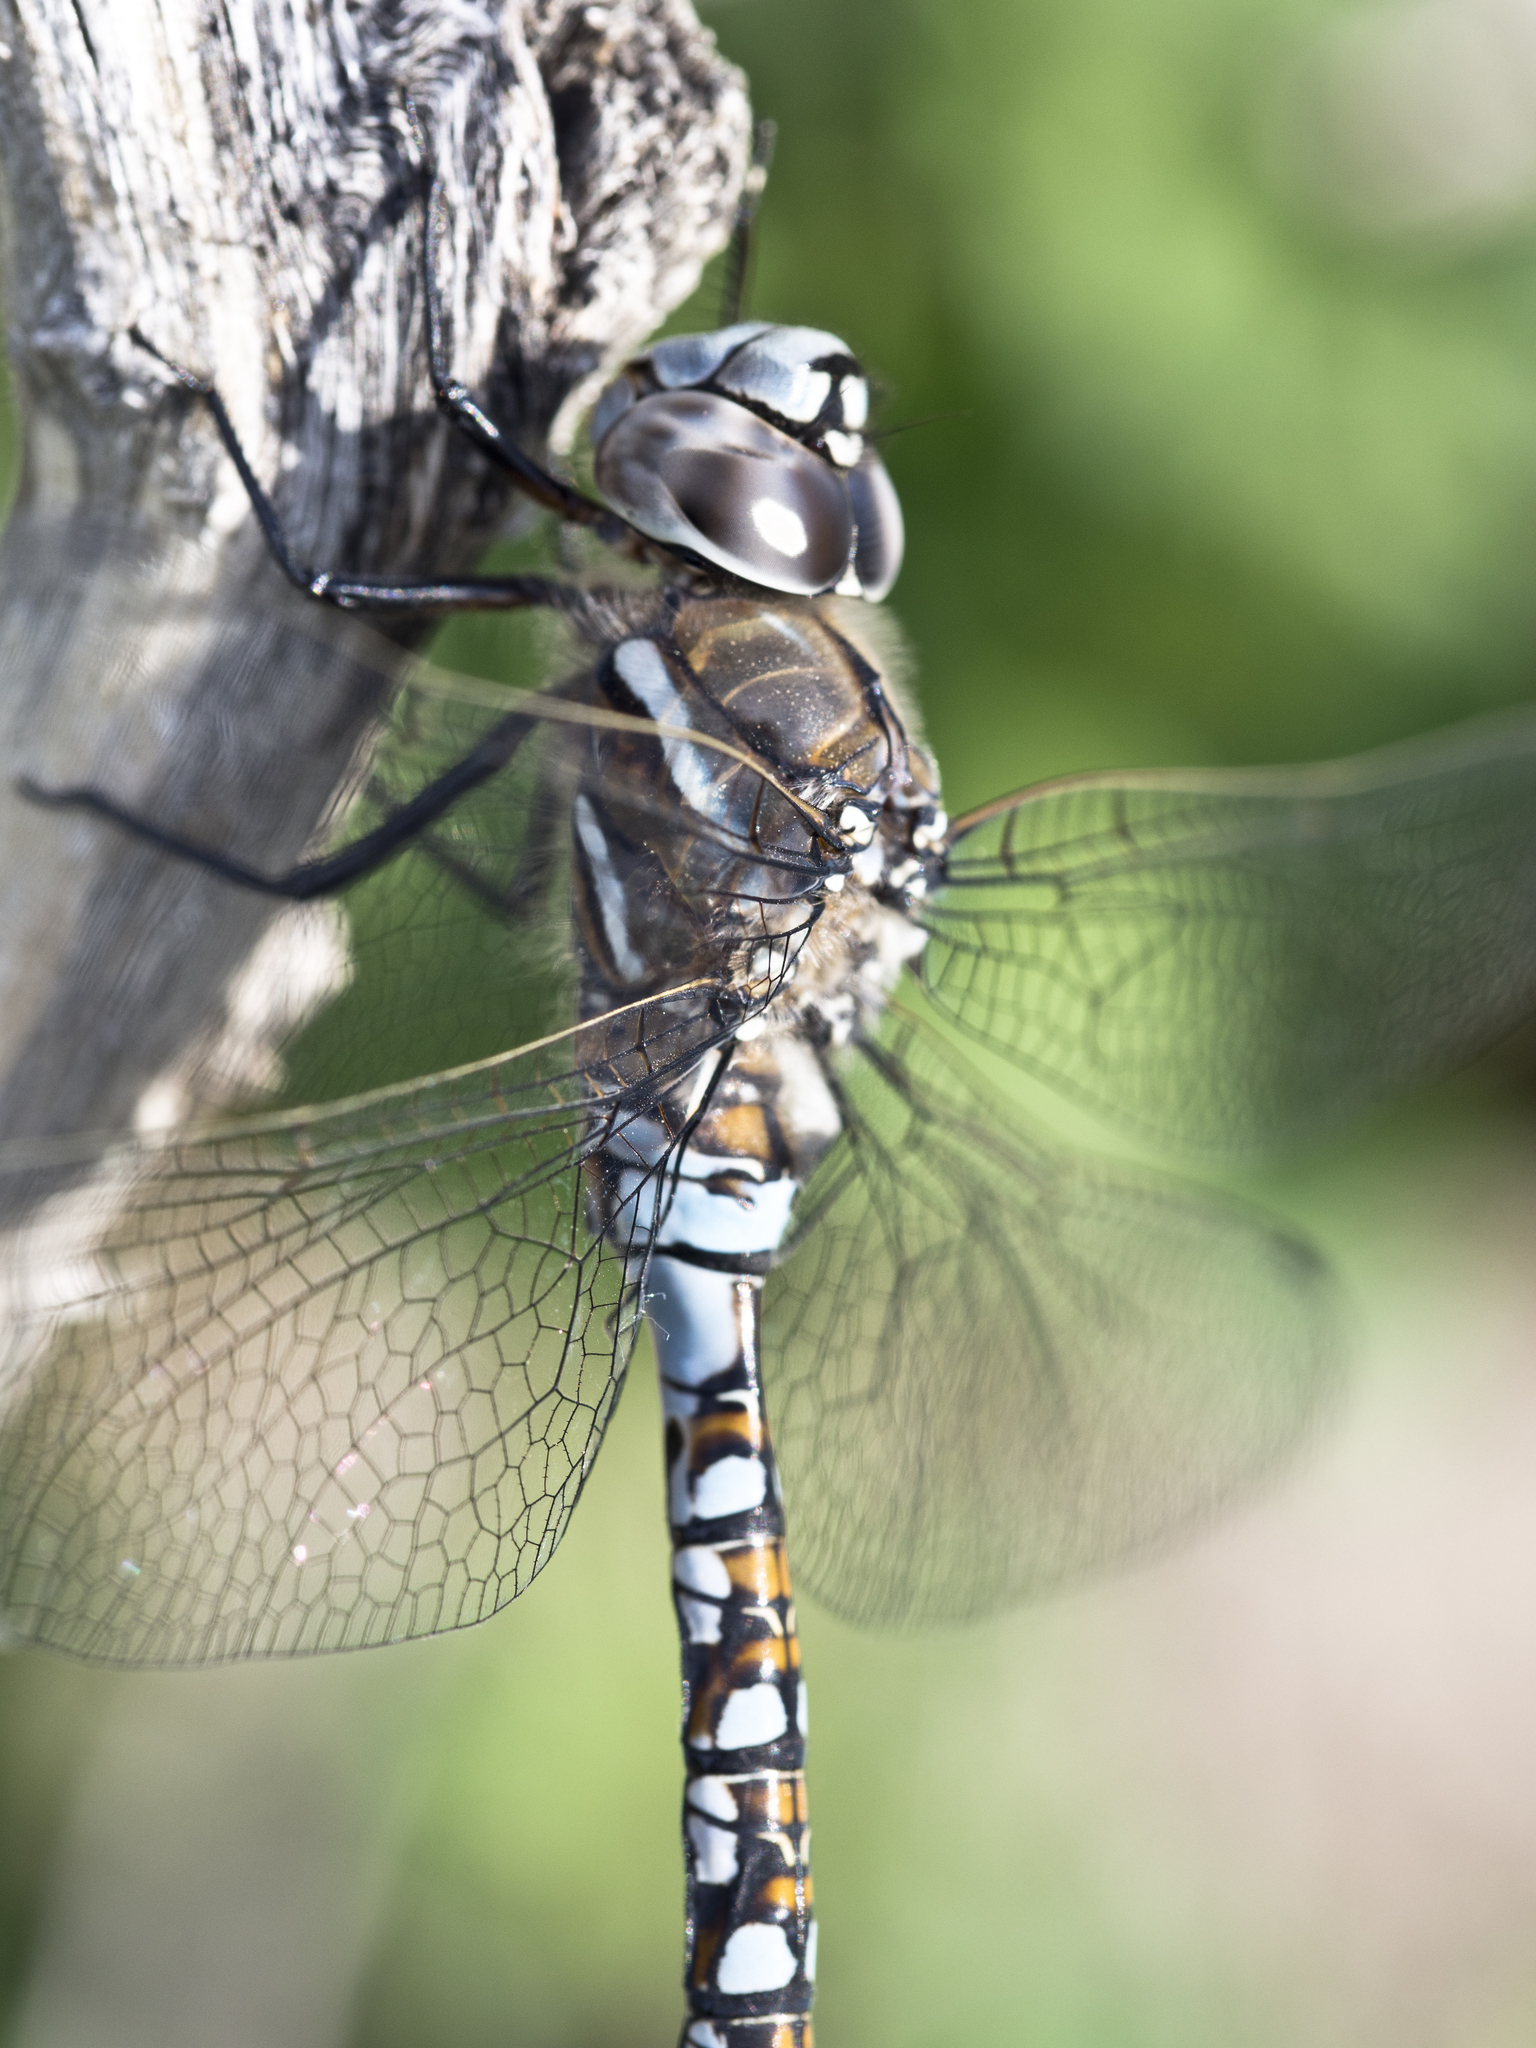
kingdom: Animalia
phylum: Arthropoda
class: Insecta
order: Odonata
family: Aeshnidae
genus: Rhionaeschna
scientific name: Rhionaeschna californica
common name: California darner
